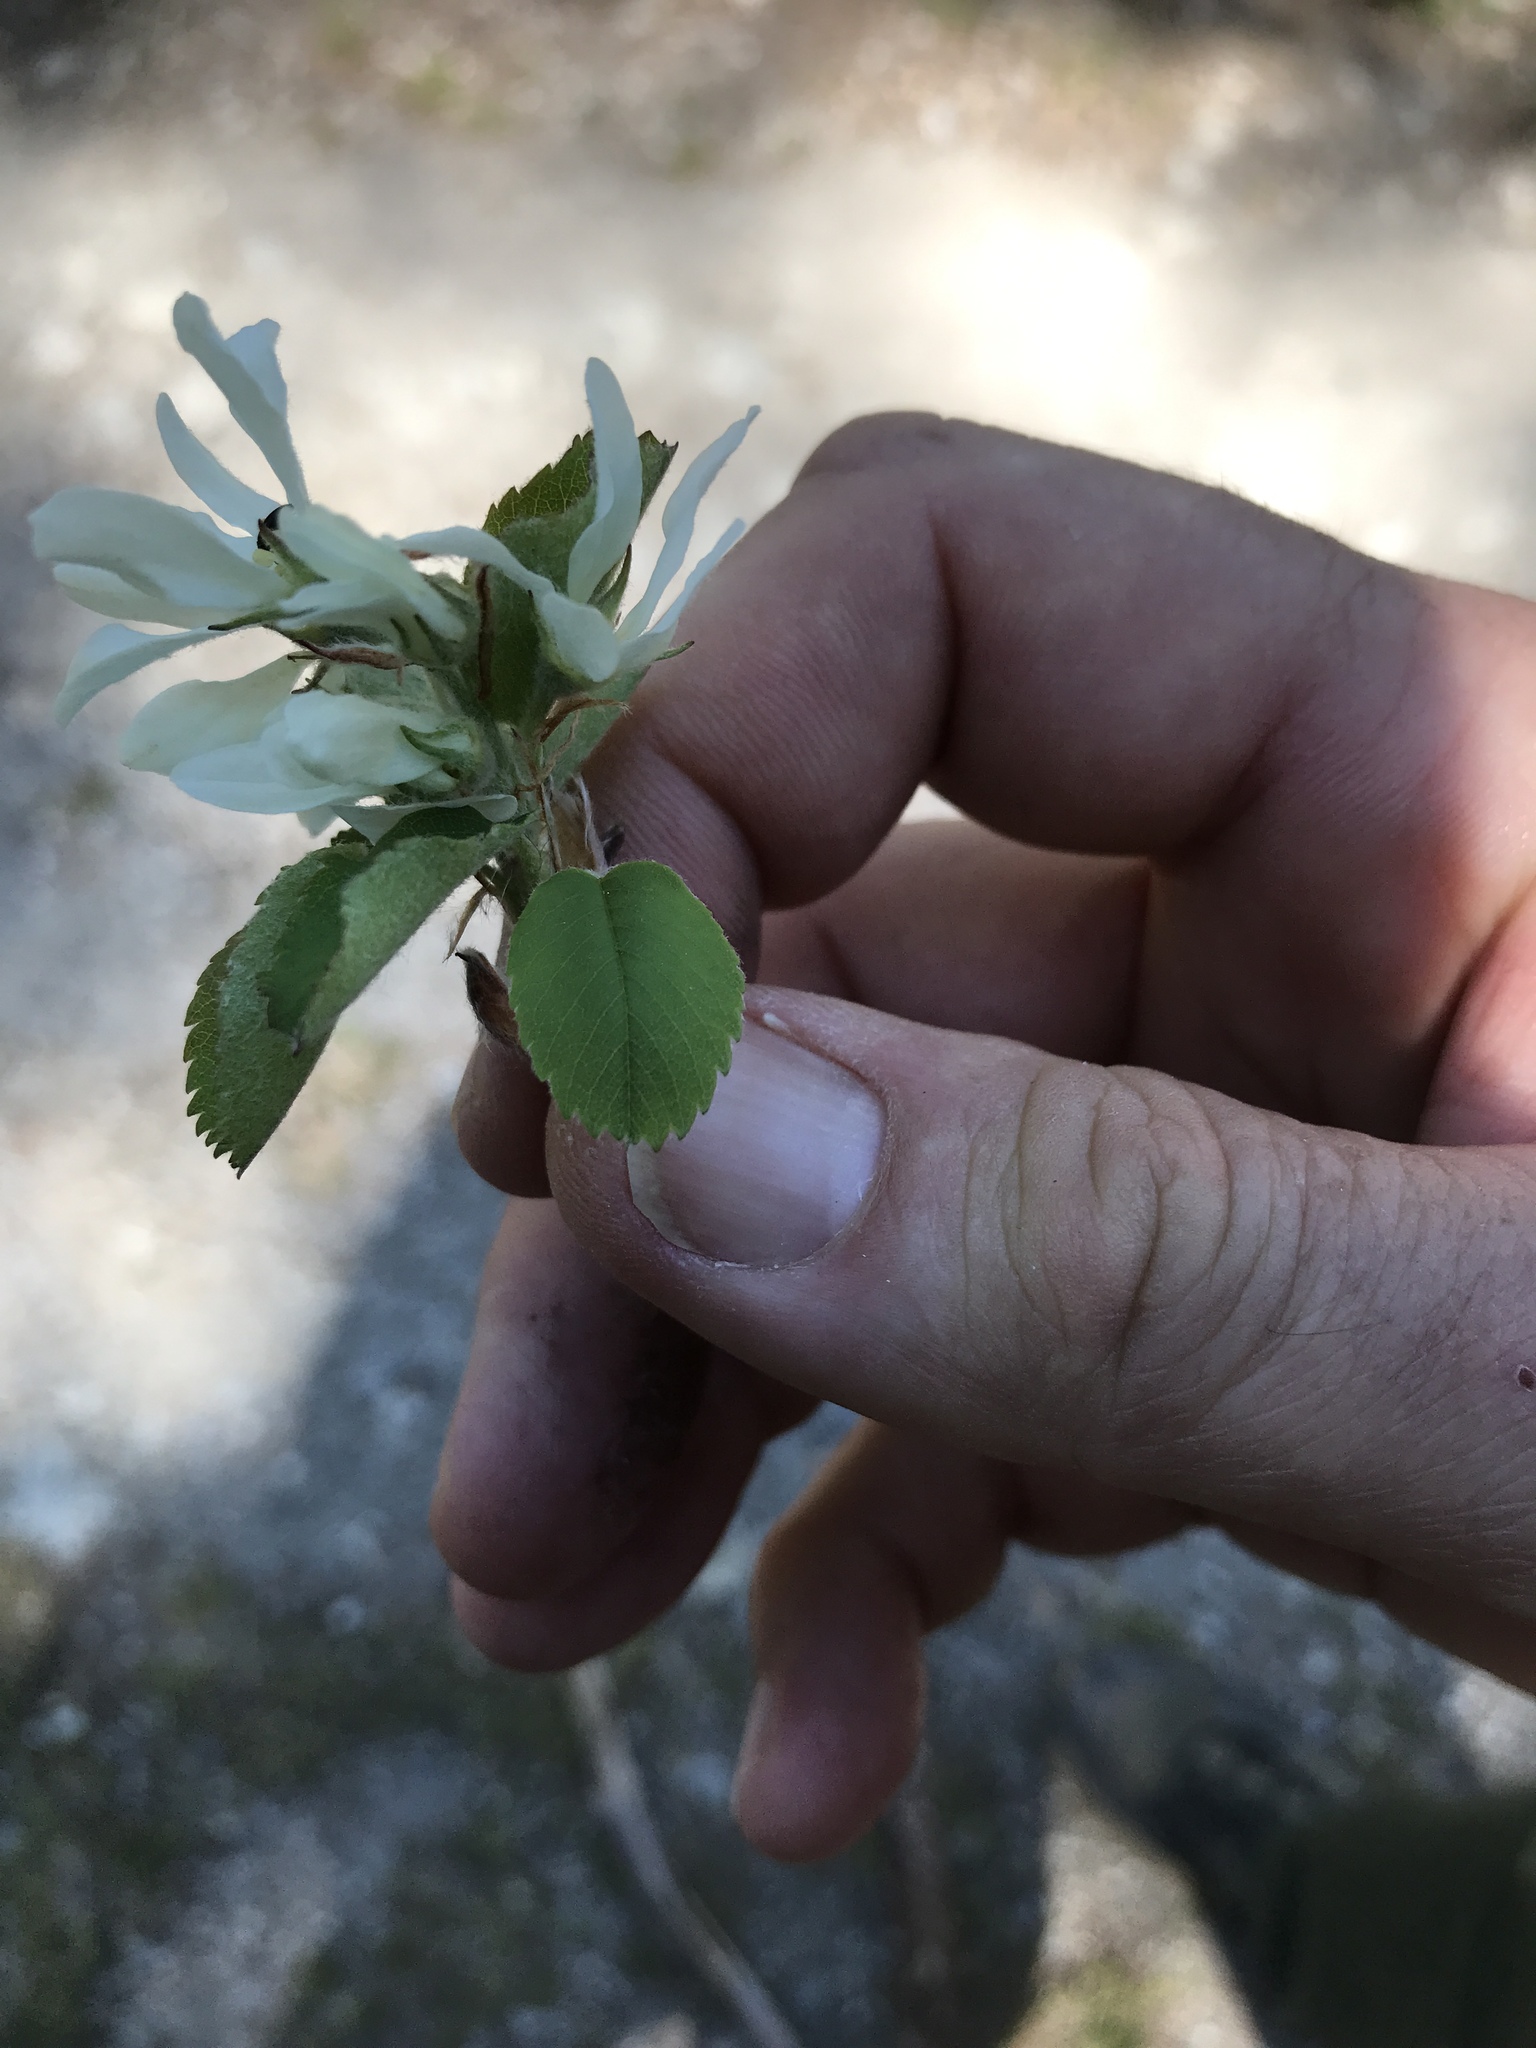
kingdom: Plantae
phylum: Tracheophyta
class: Magnoliopsida
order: Rosales
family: Rosaceae
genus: Amelanchier
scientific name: Amelanchier ovalis
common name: Serviceberry
